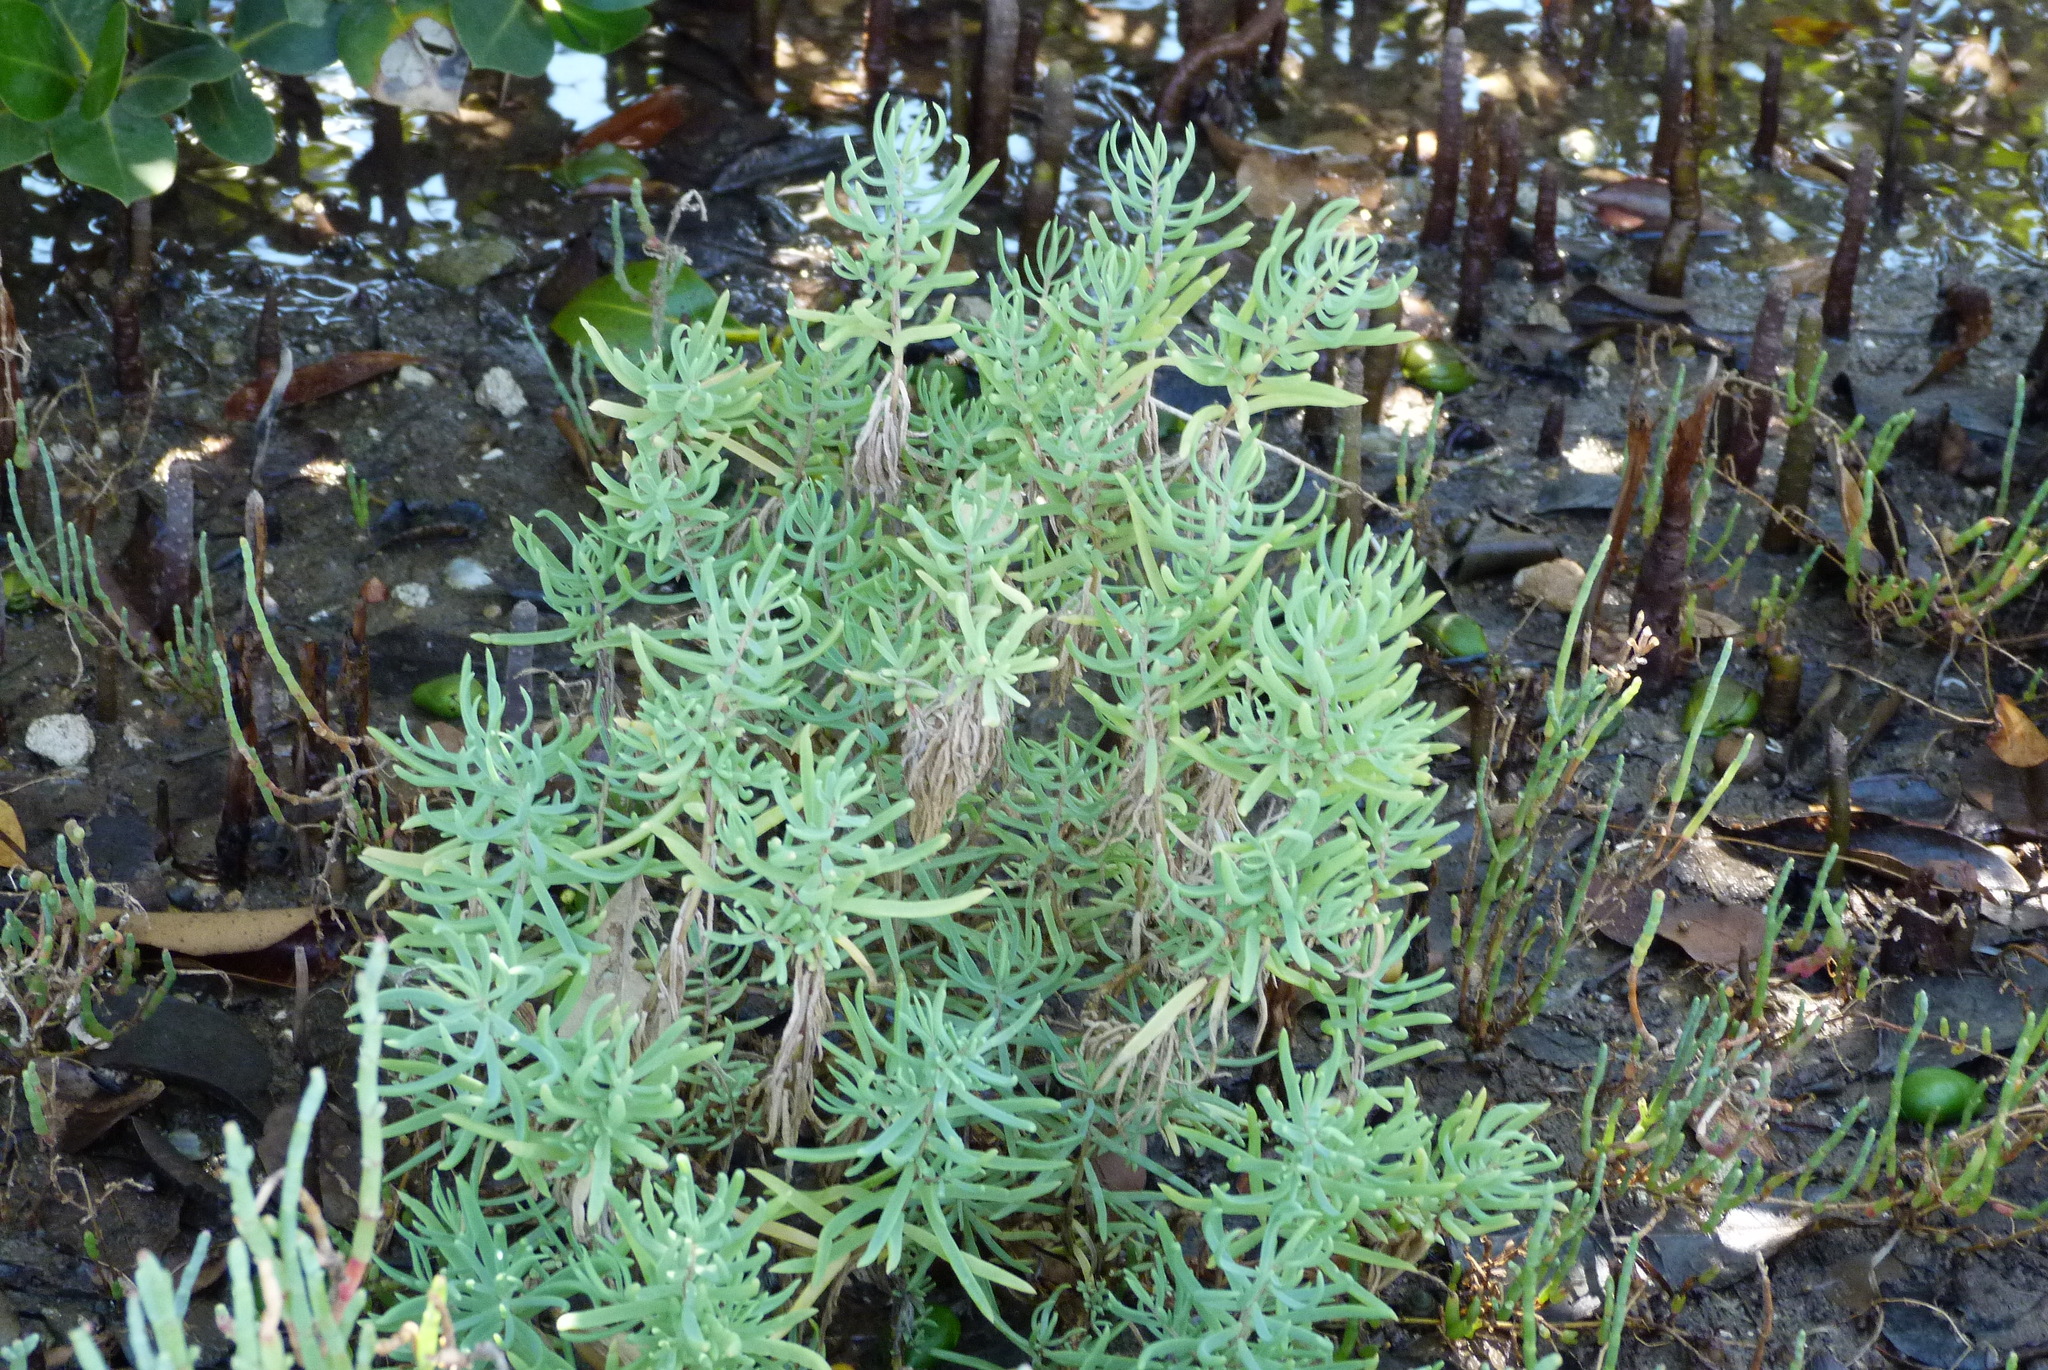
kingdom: Plantae
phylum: Tracheophyta
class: Magnoliopsida
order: Caryophyllales
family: Amaranthaceae
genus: Suaeda
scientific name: Suaeda australis
